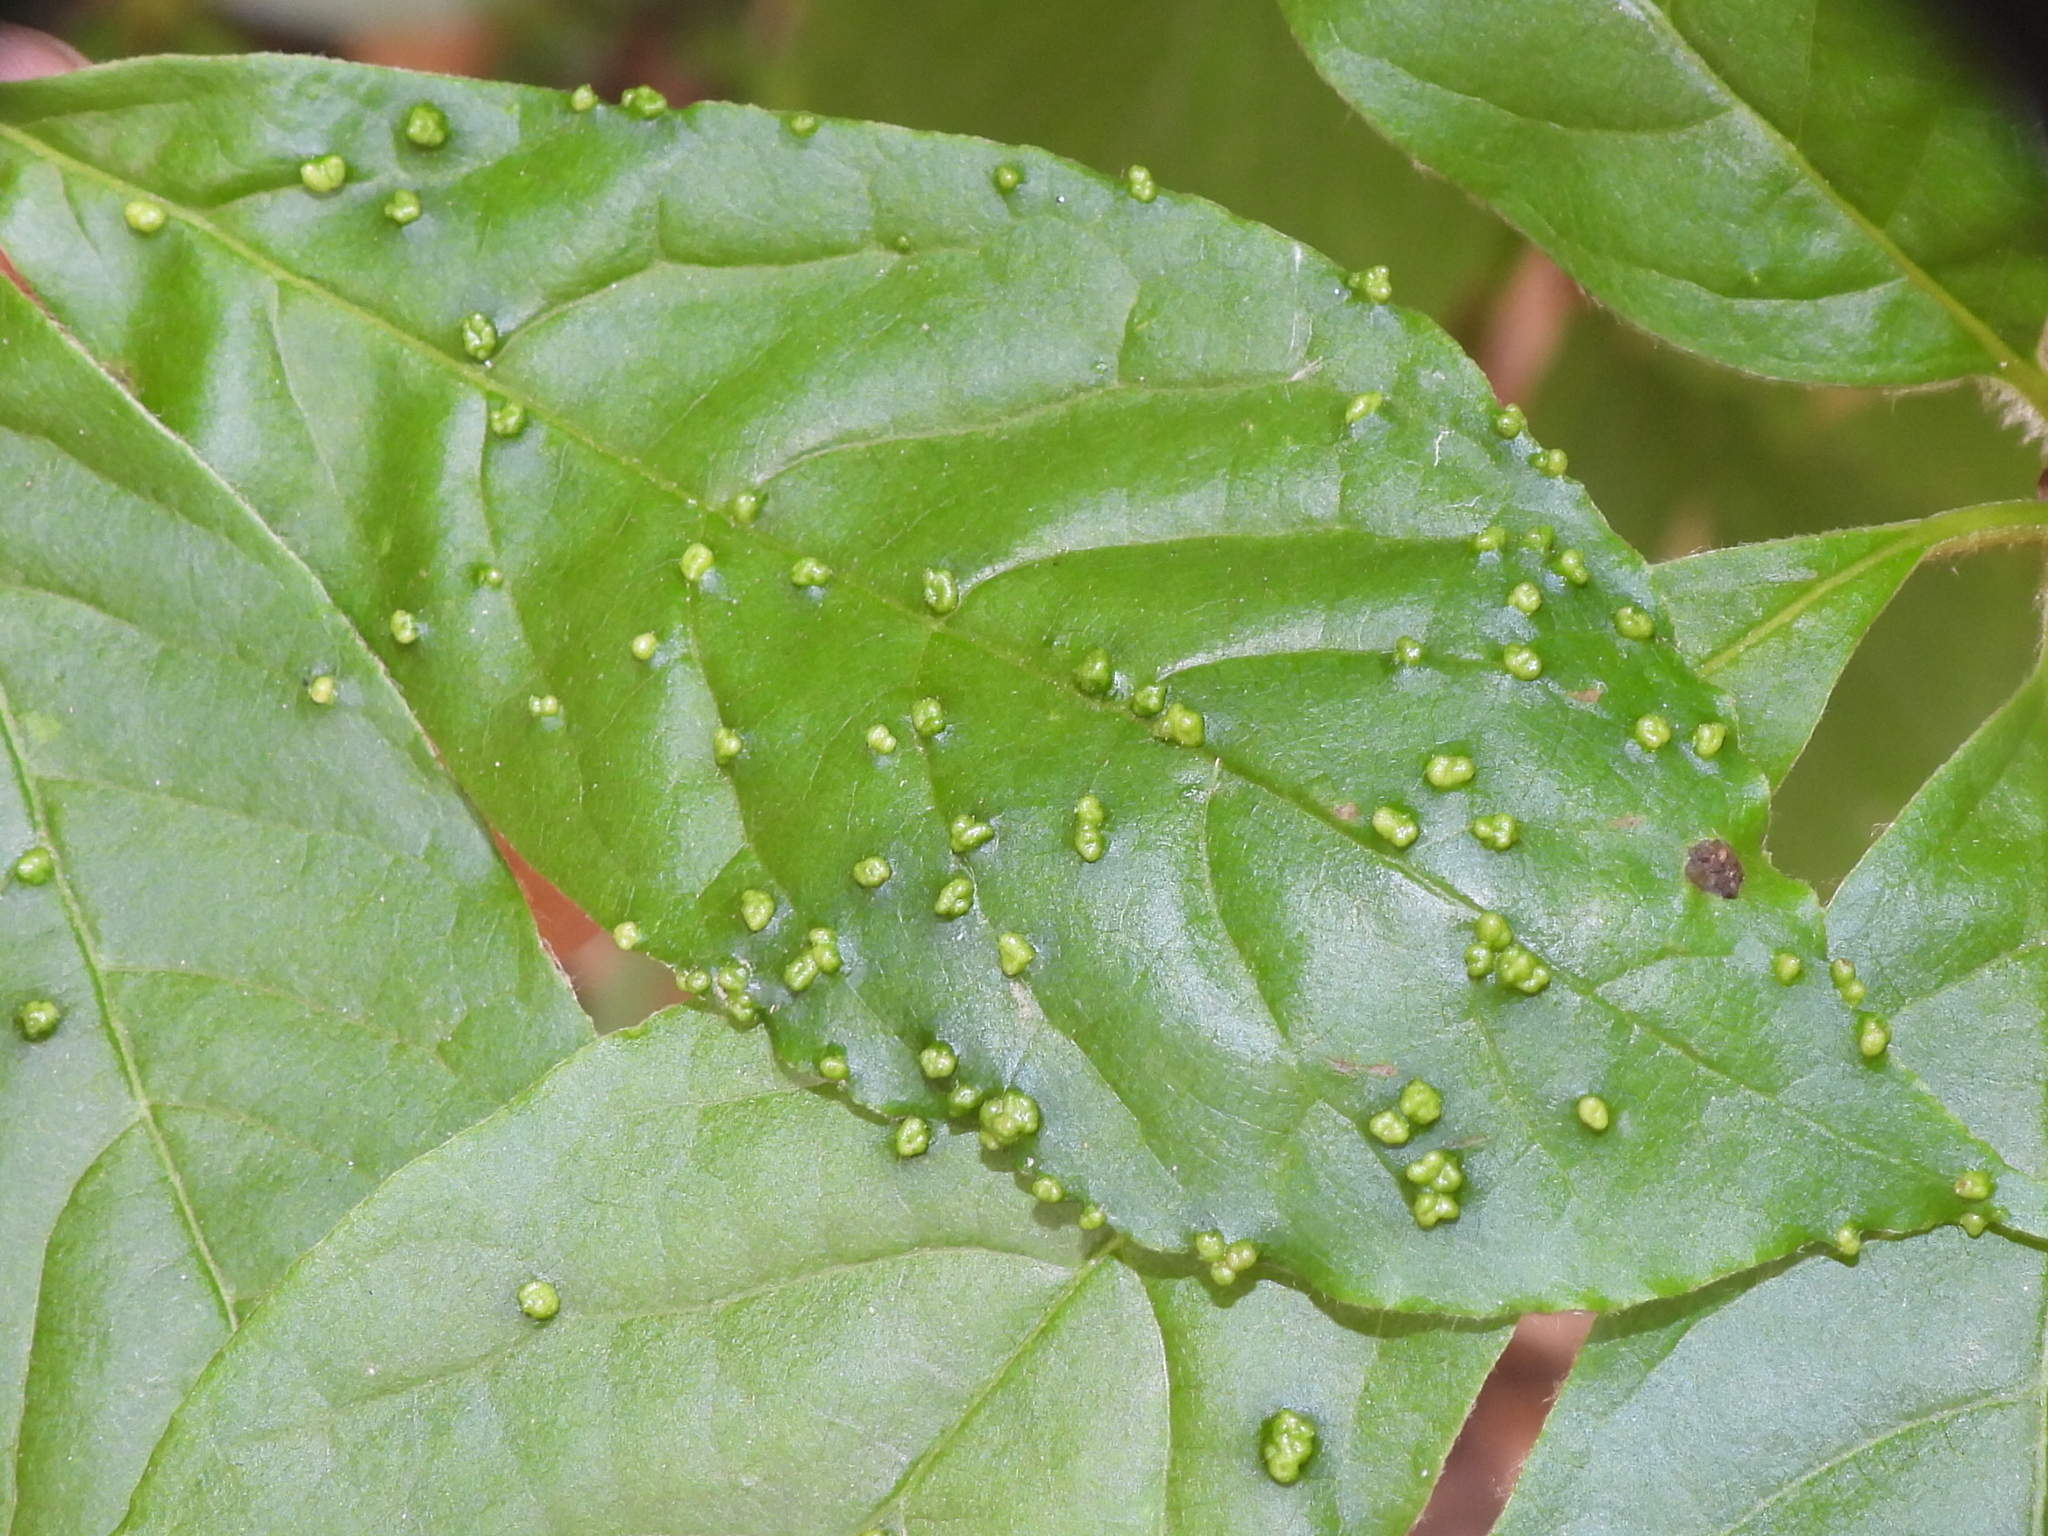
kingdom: Animalia
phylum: Arthropoda
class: Arachnida
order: Trombidiformes
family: Eriophyidae
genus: Aceria
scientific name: Aceria
